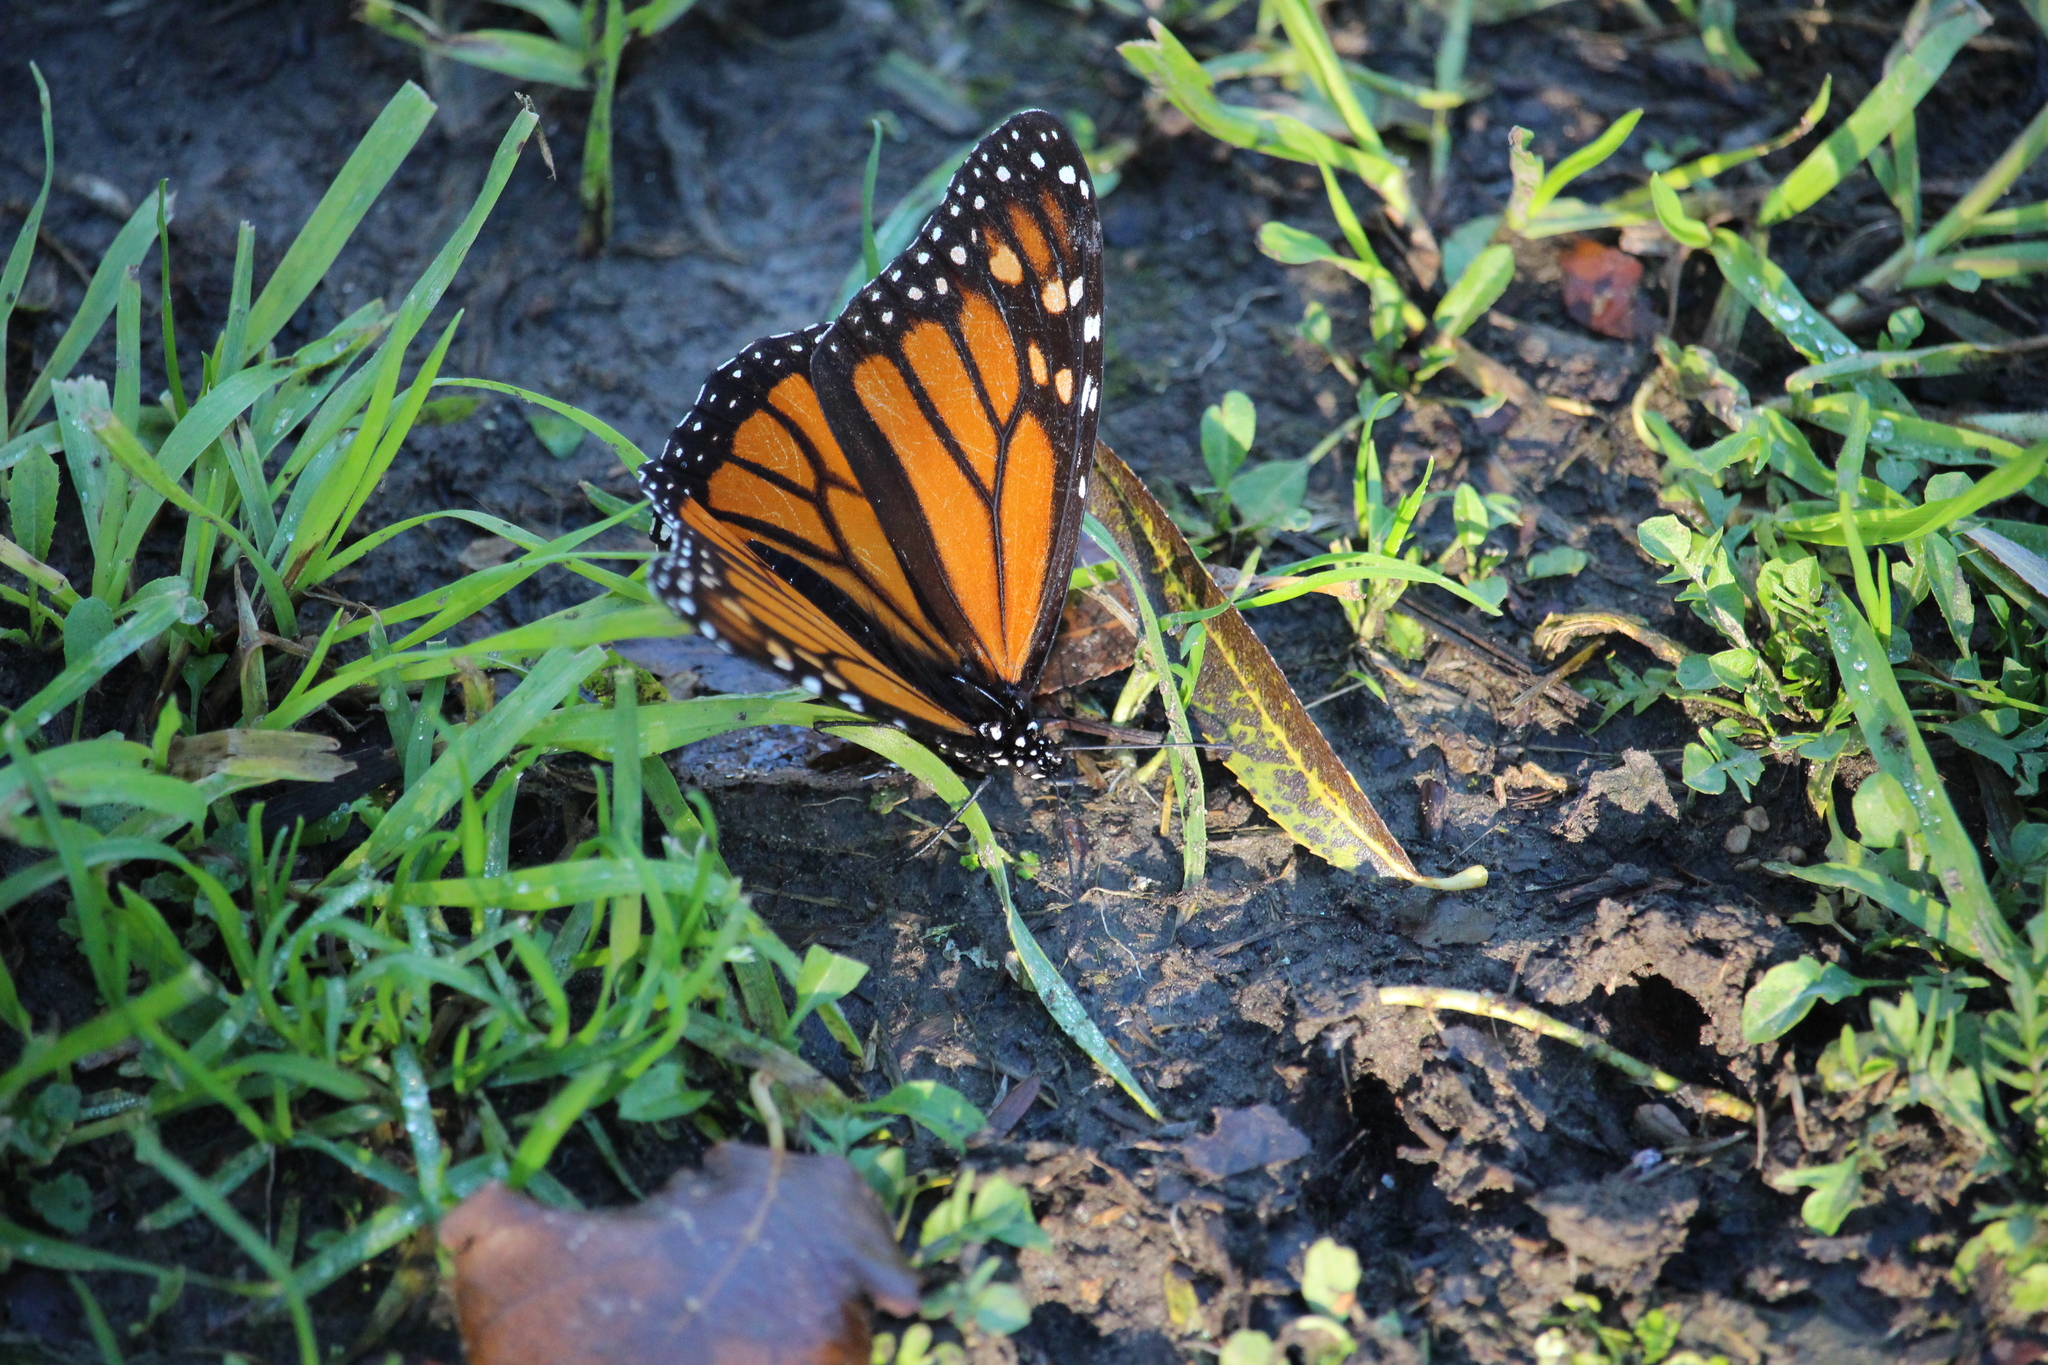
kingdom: Animalia
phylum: Arthropoda
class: Insecta
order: Lepidoptera
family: Nymphalidae
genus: Danaus
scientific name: Danaus plexippus
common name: Monarch
